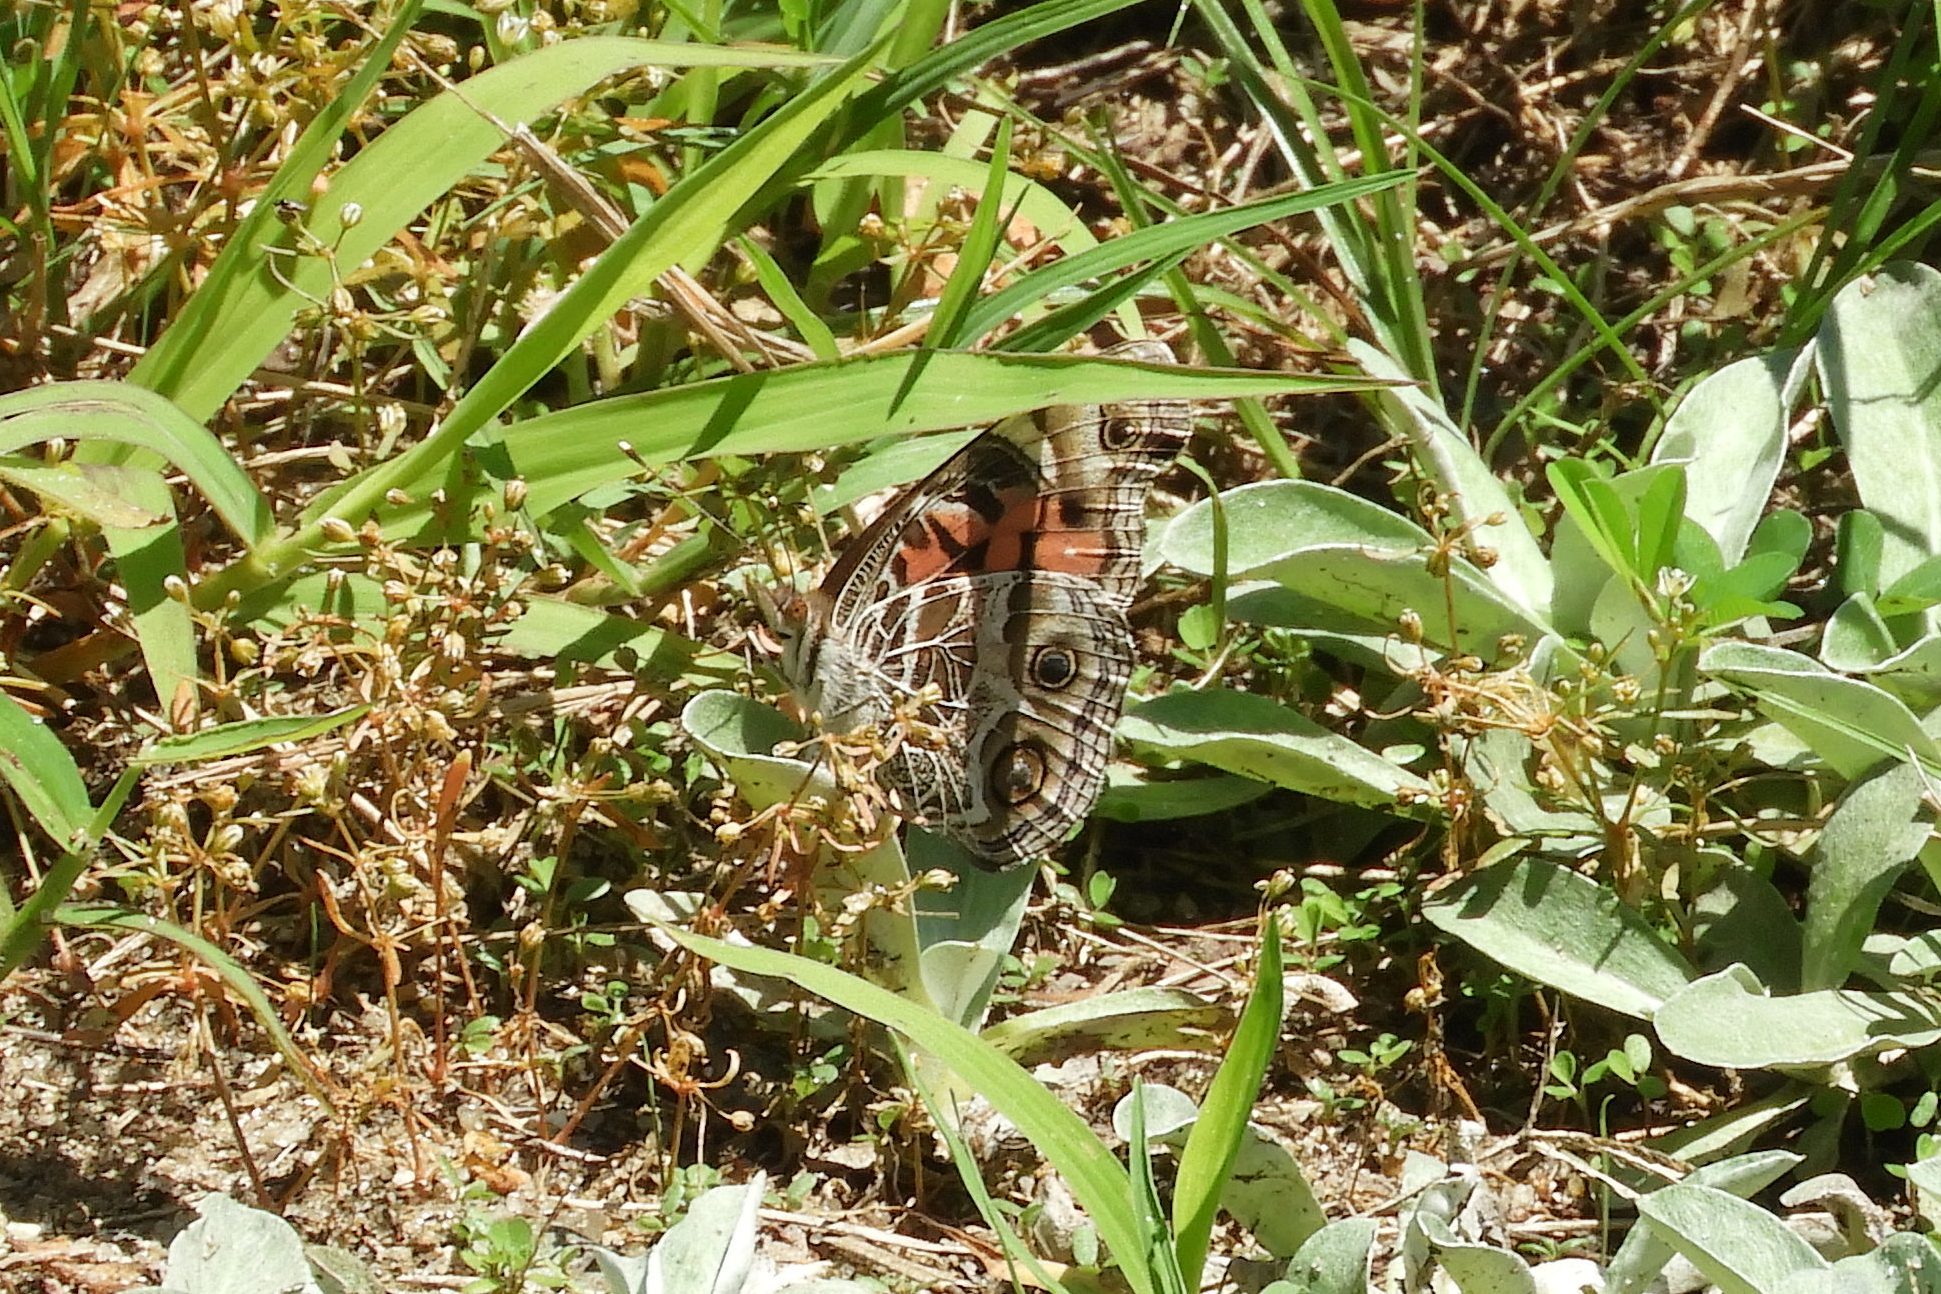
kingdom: Animalia
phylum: Arthropoda
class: Insecta
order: Lepidoptera
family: Nymphalidae
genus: Vanessa
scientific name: Vanessa virginiensis
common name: American lady
